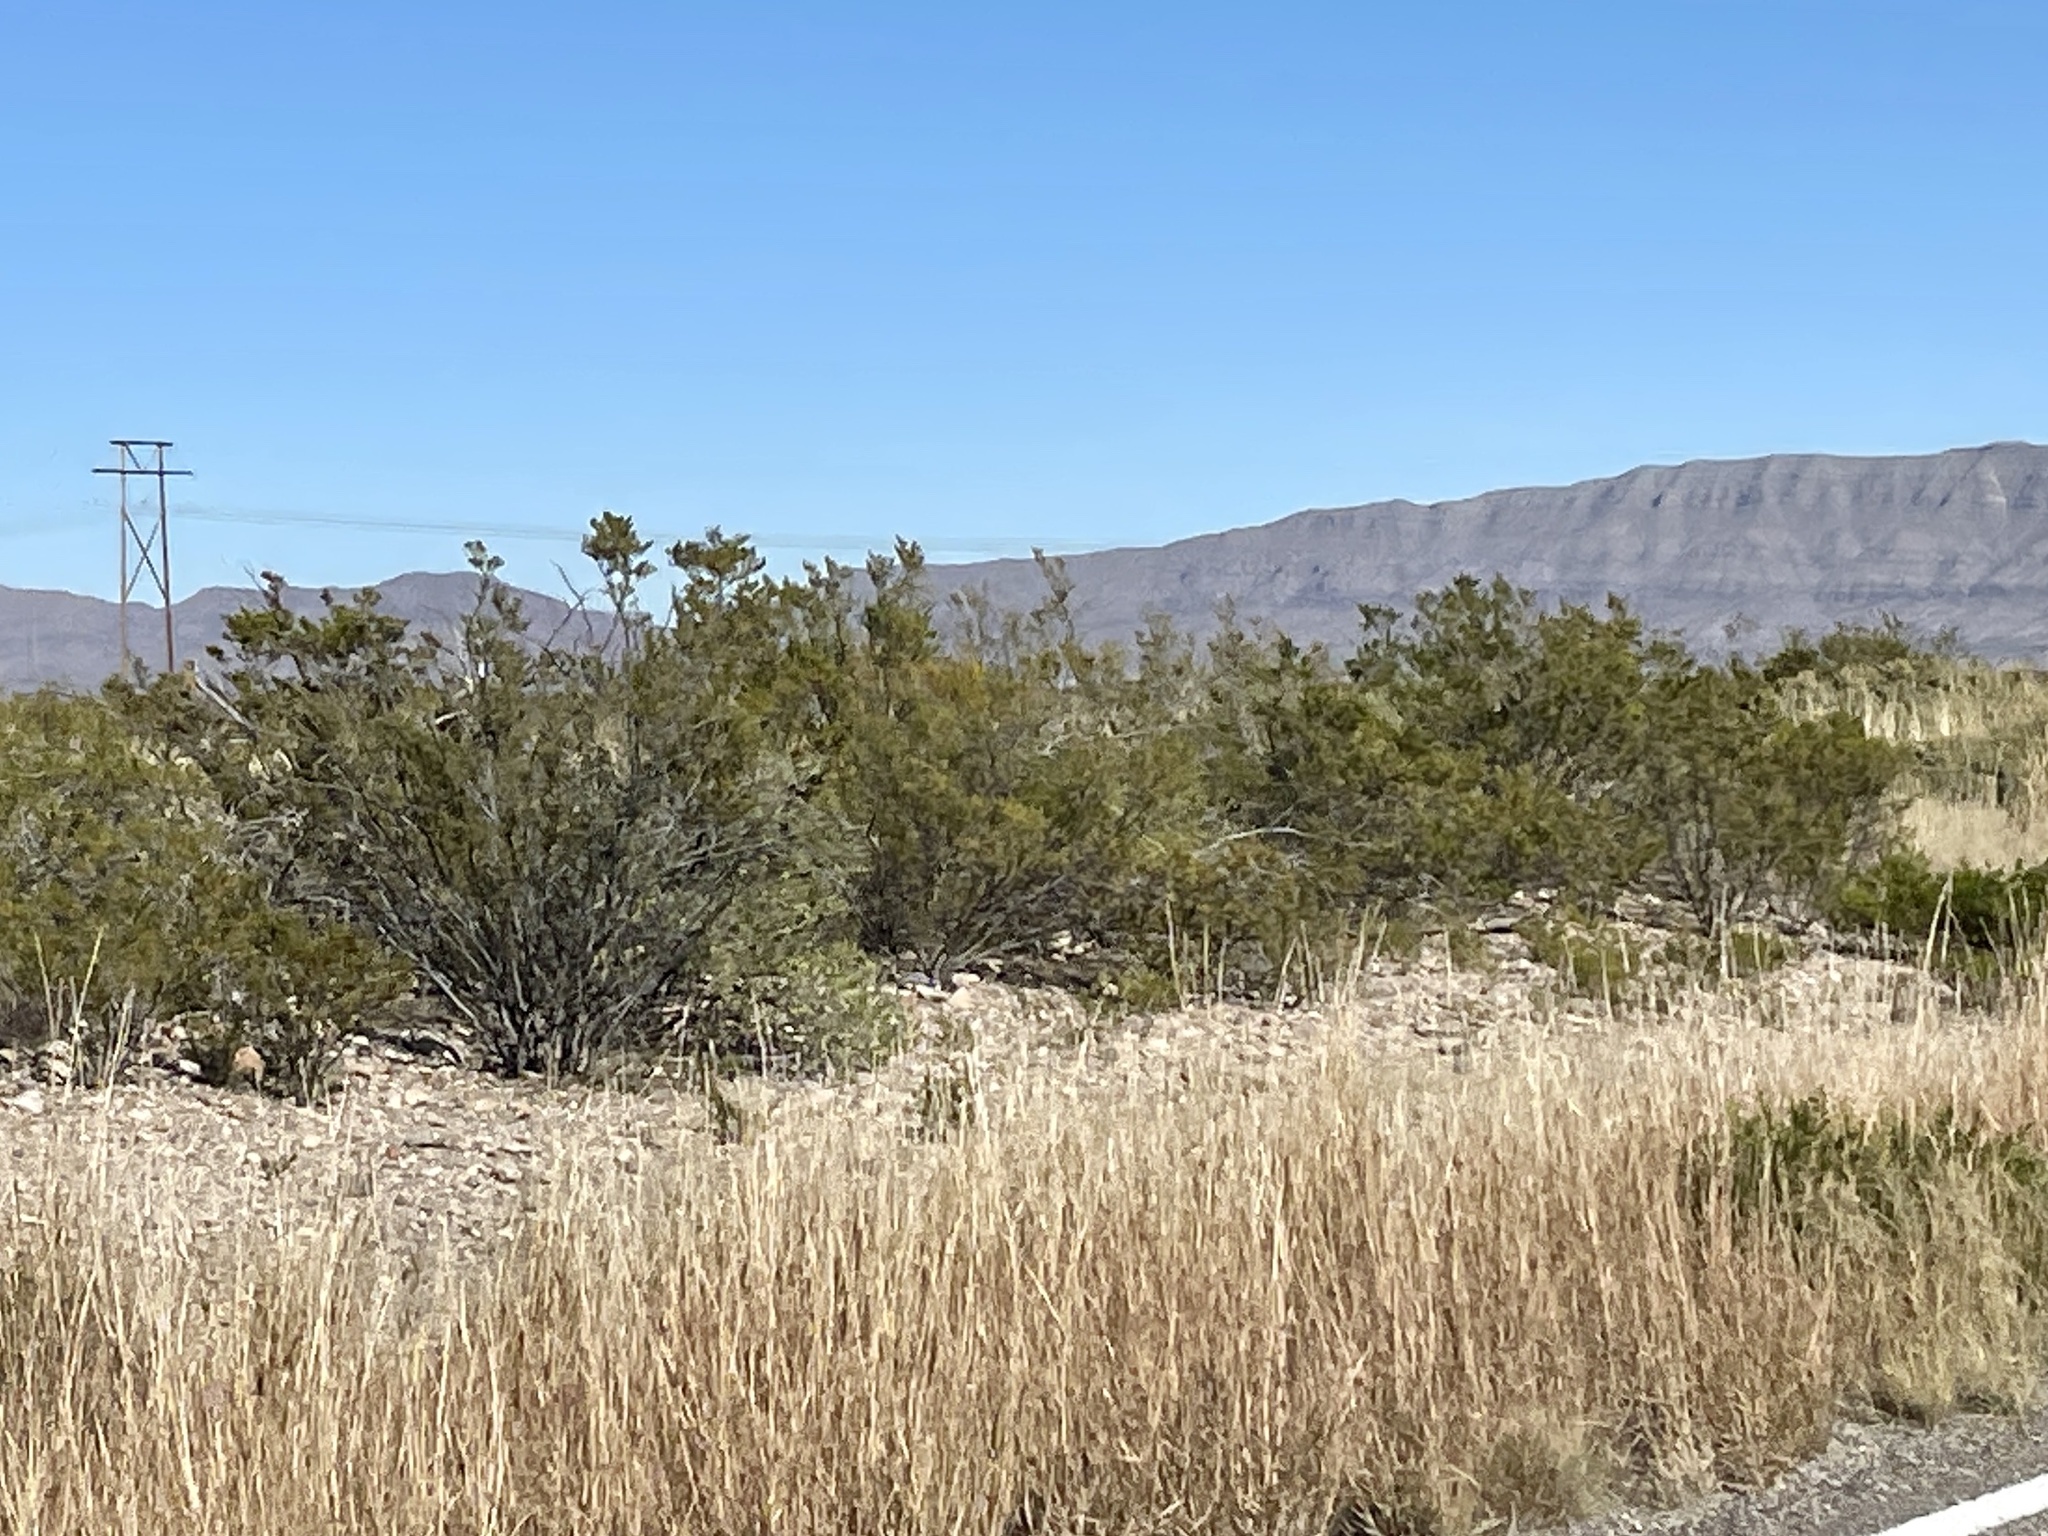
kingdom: Plantae
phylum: Tracheophyta
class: Magnoliopsida
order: Zygophyllales
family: Zygophyllaceae
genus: Larrea
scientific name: Larrea tridentata
